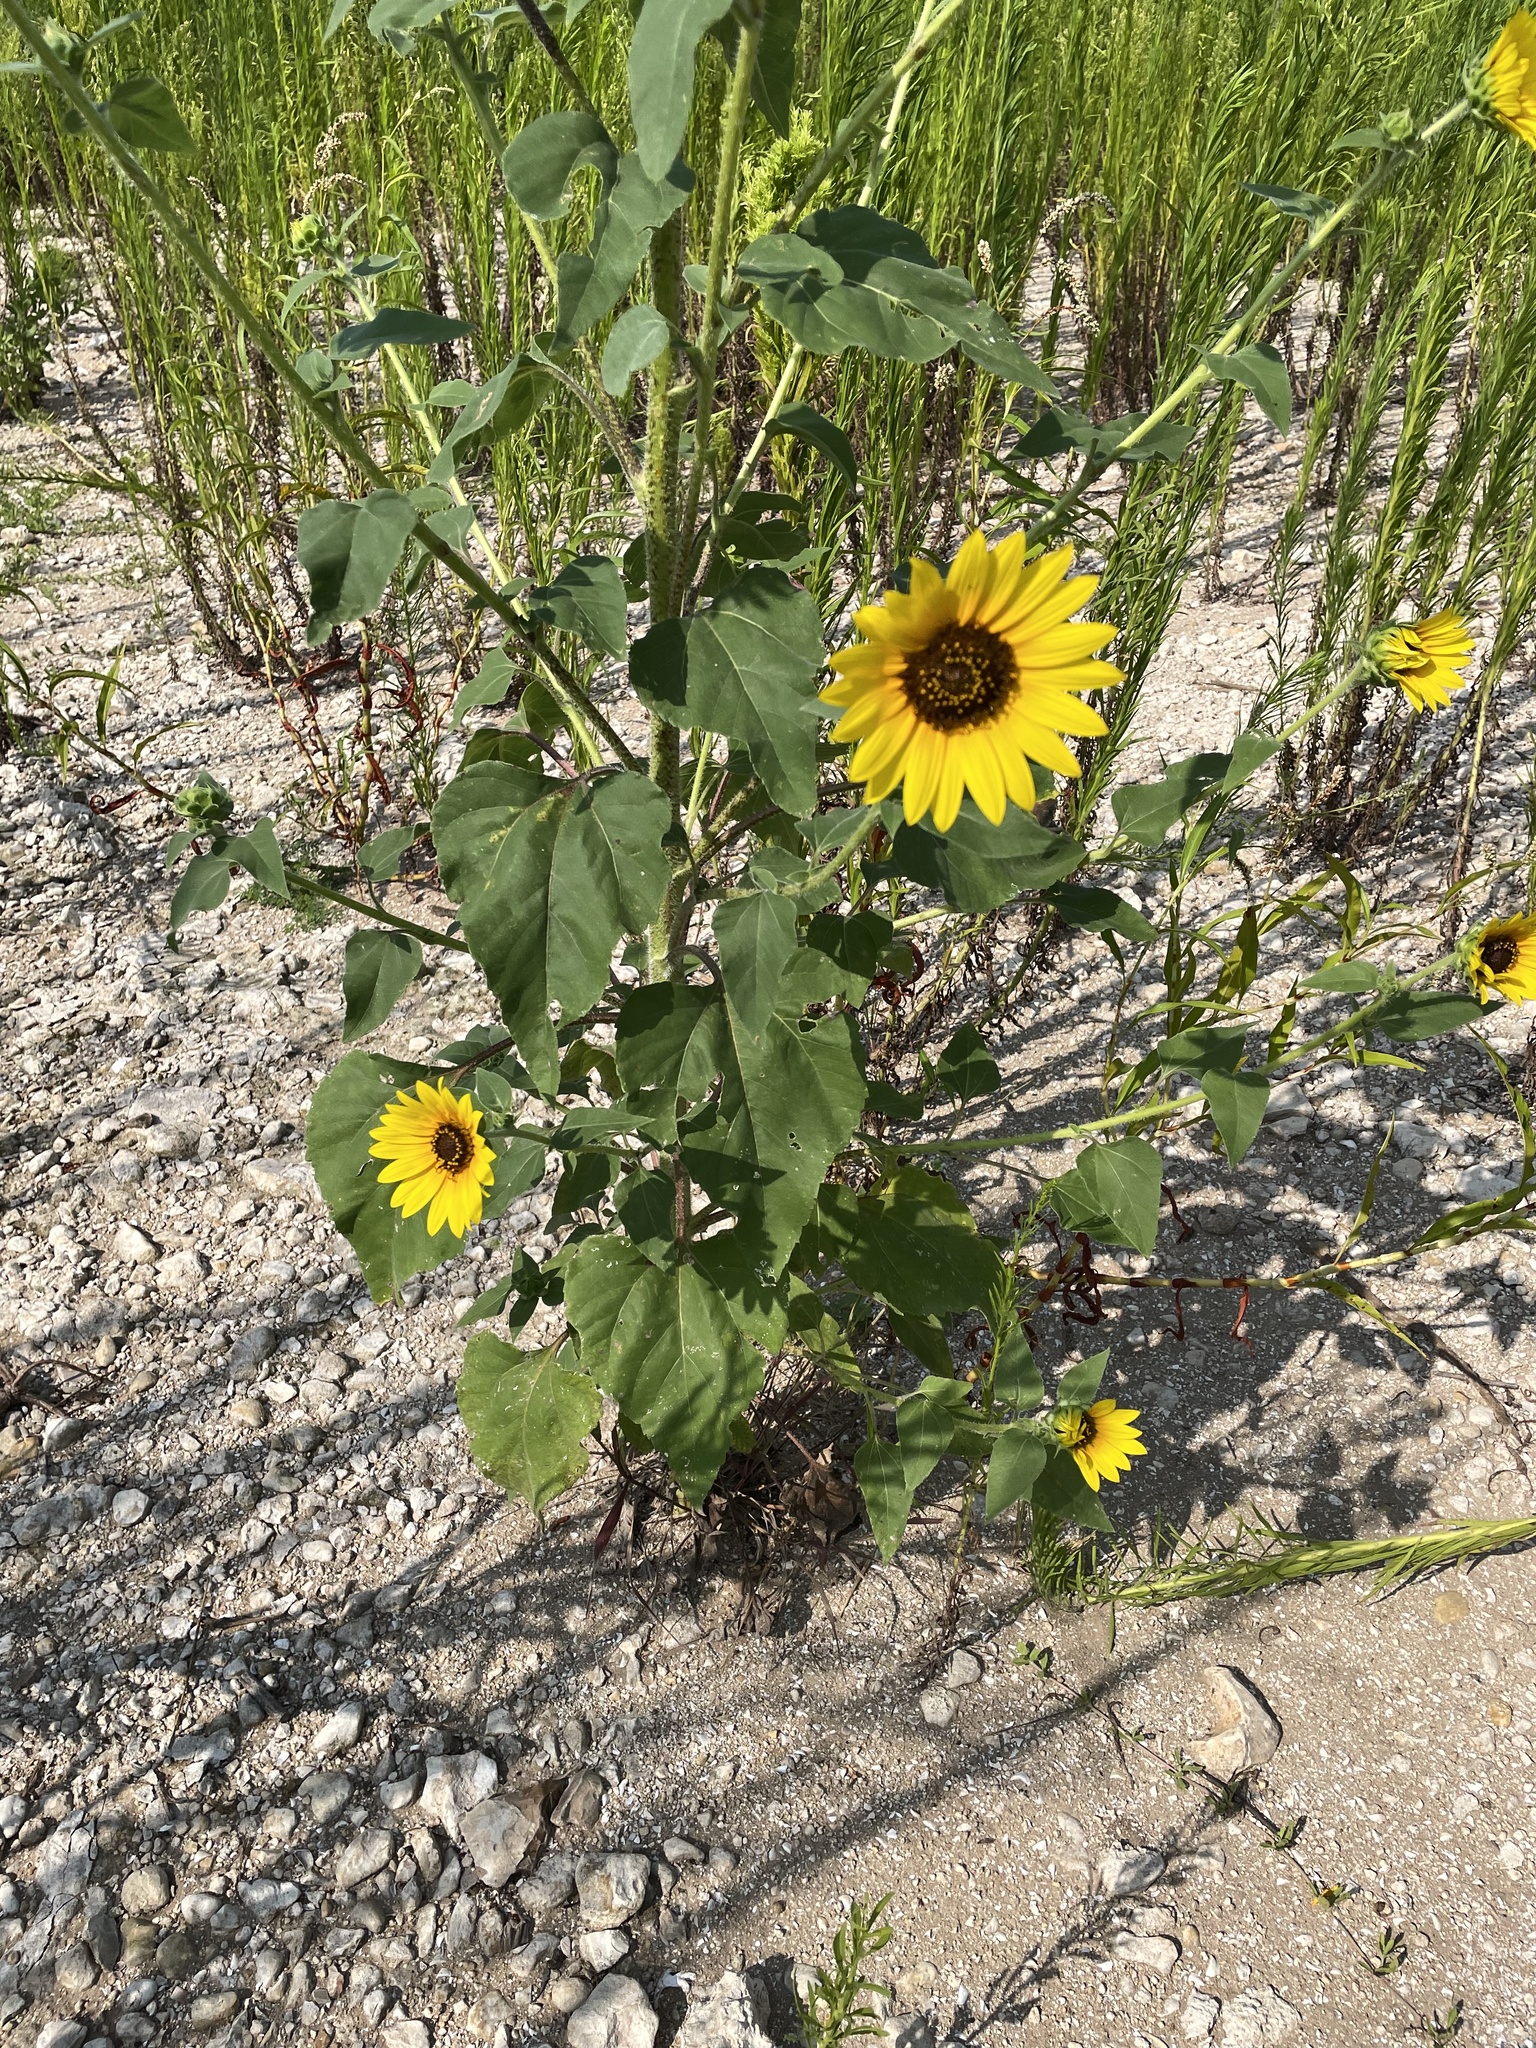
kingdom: Plantae
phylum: Tracheophyta
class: Magnoliopsida
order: Asterales
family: Asteraceae
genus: Helianthus
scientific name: Helianthus annuus
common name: Sunflower
